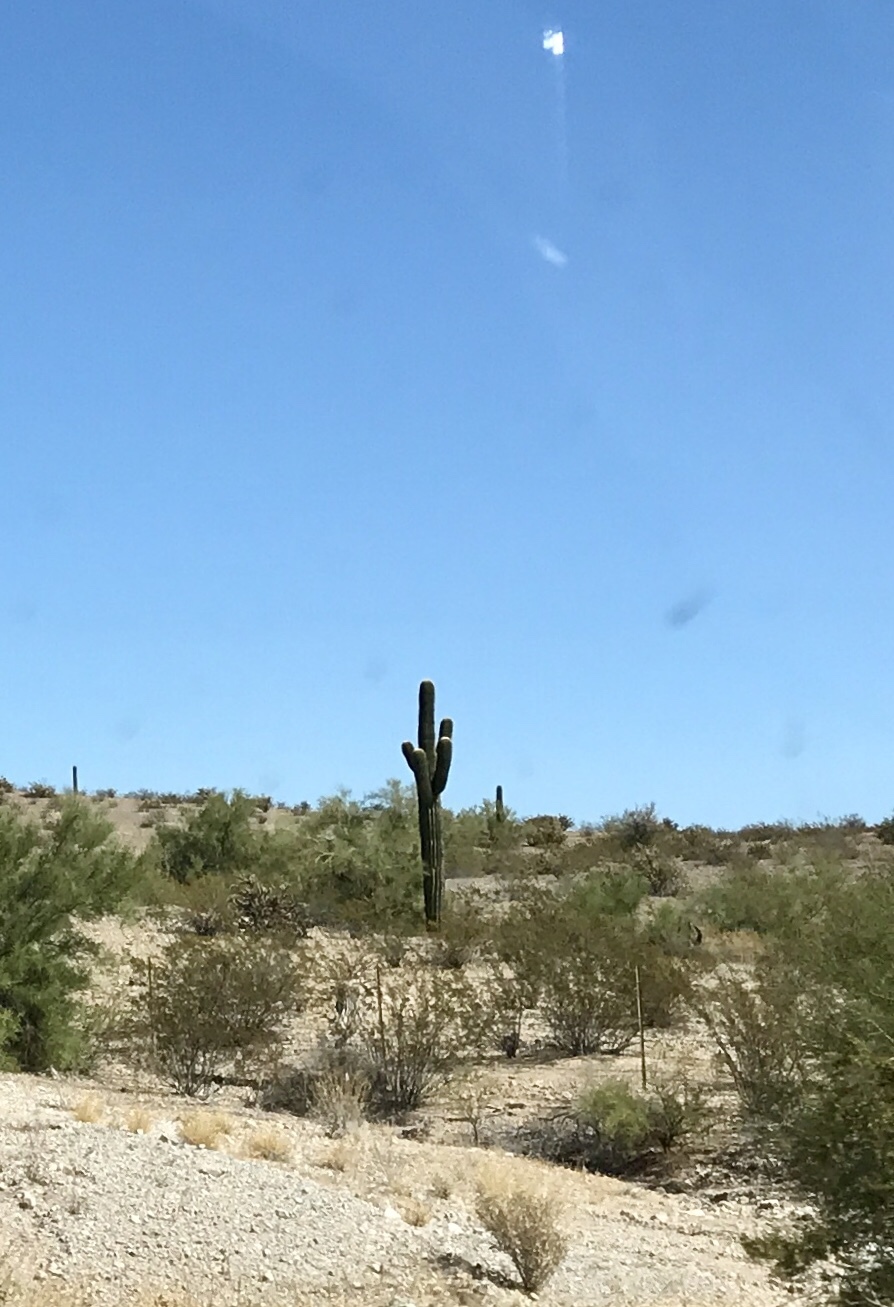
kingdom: Plantae
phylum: Tracheophyta
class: Magnoliopsida
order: Caryophyllales
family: Cactaceae
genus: Carnegiea
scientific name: Carnegiea gigantea
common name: Saguaro
